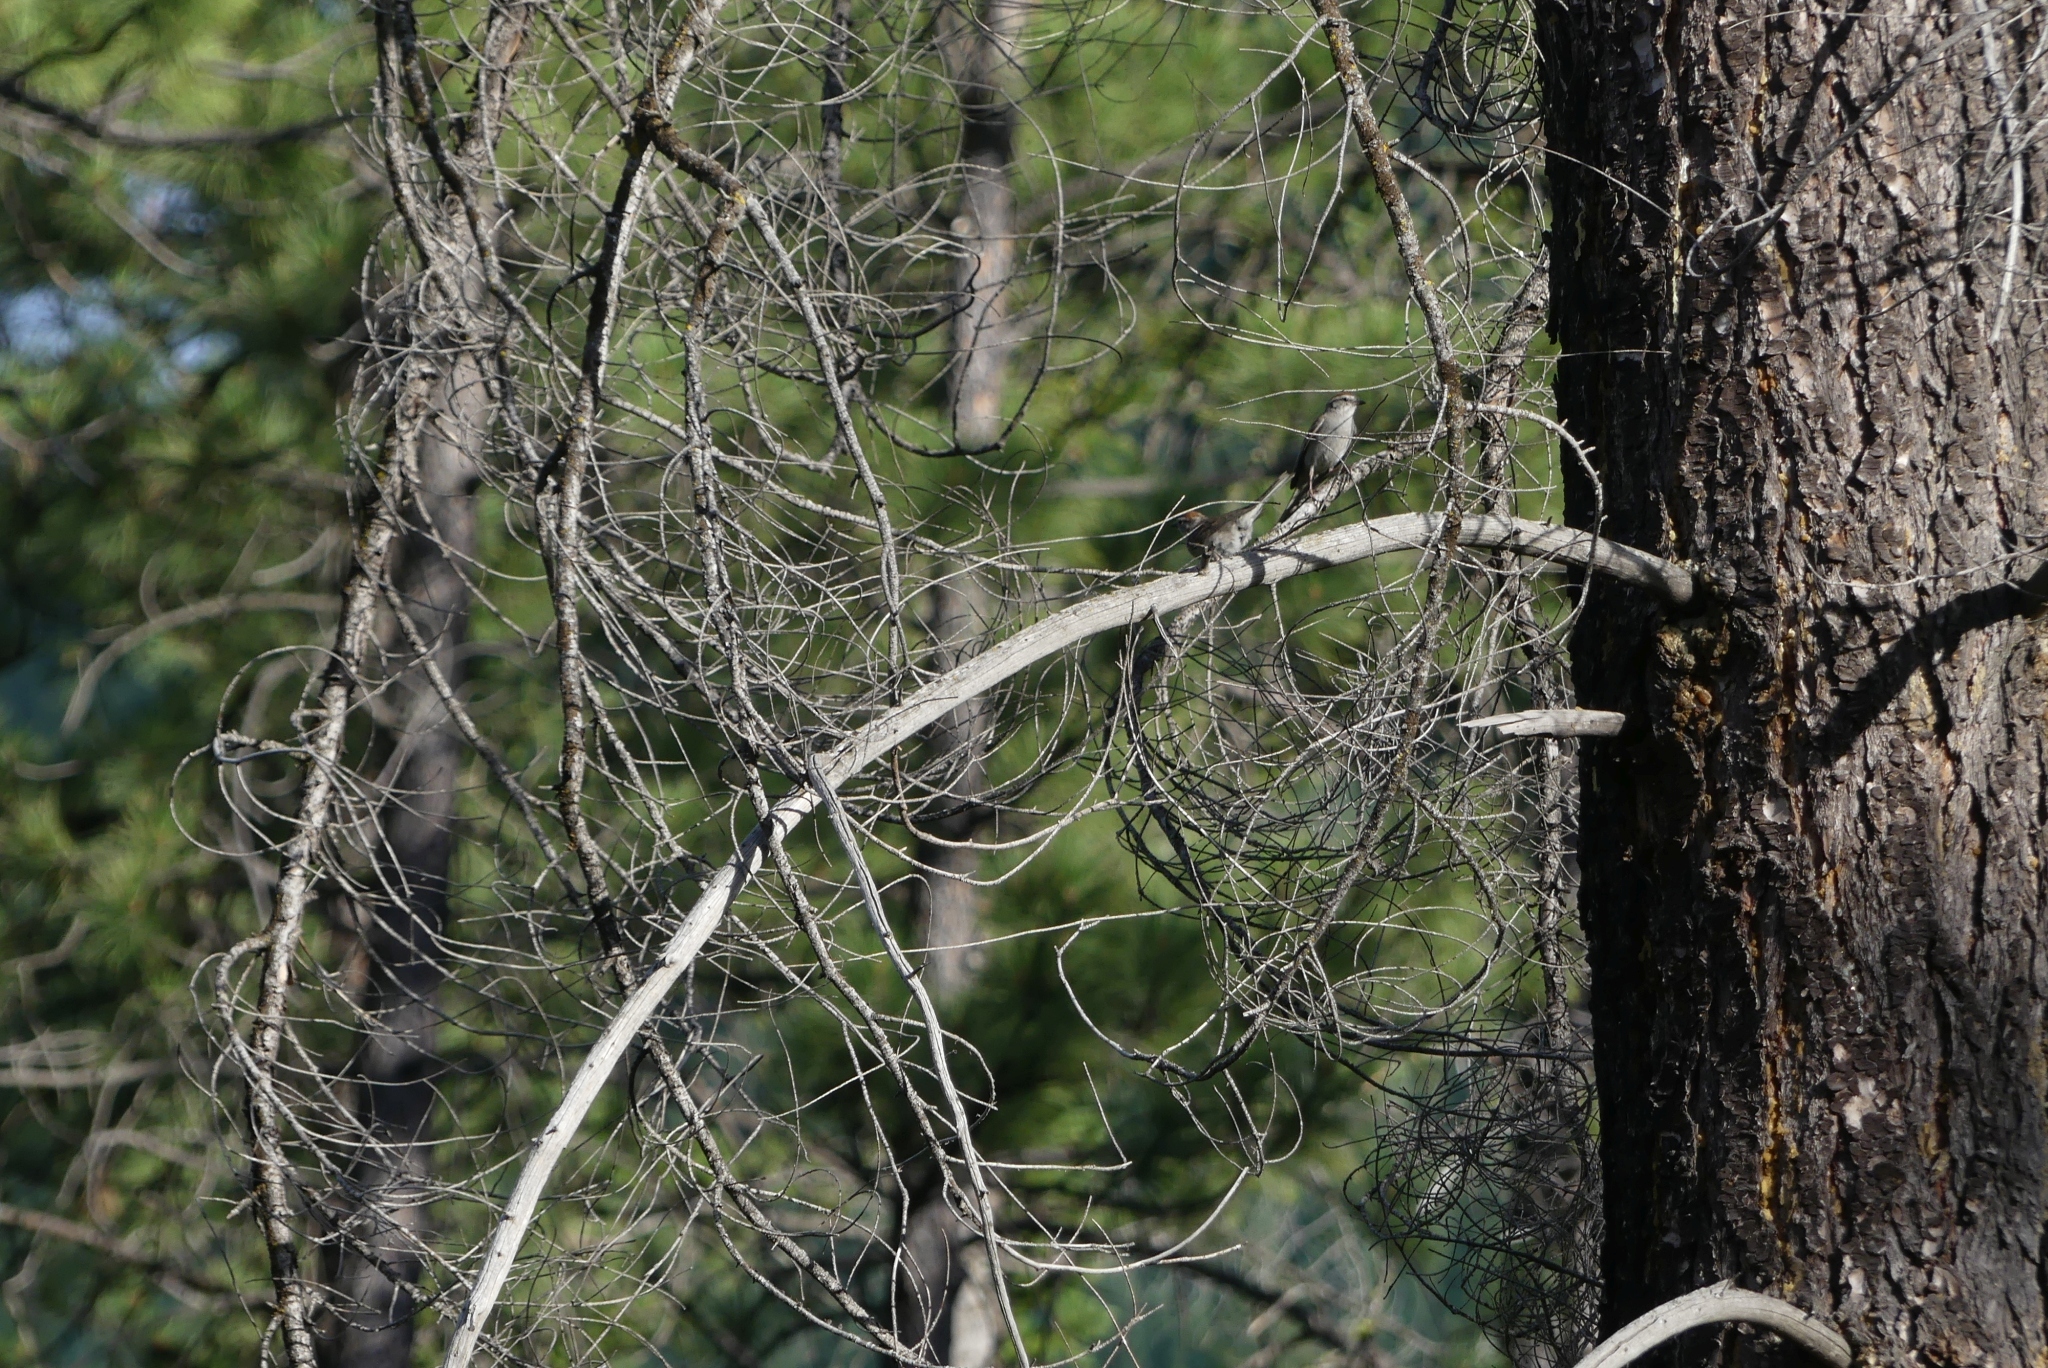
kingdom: Animalia
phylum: Chordata
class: Aves
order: Passeriformes
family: Passerellidae
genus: Spizella
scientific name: Spizella passerina
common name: Chipping sparrow
